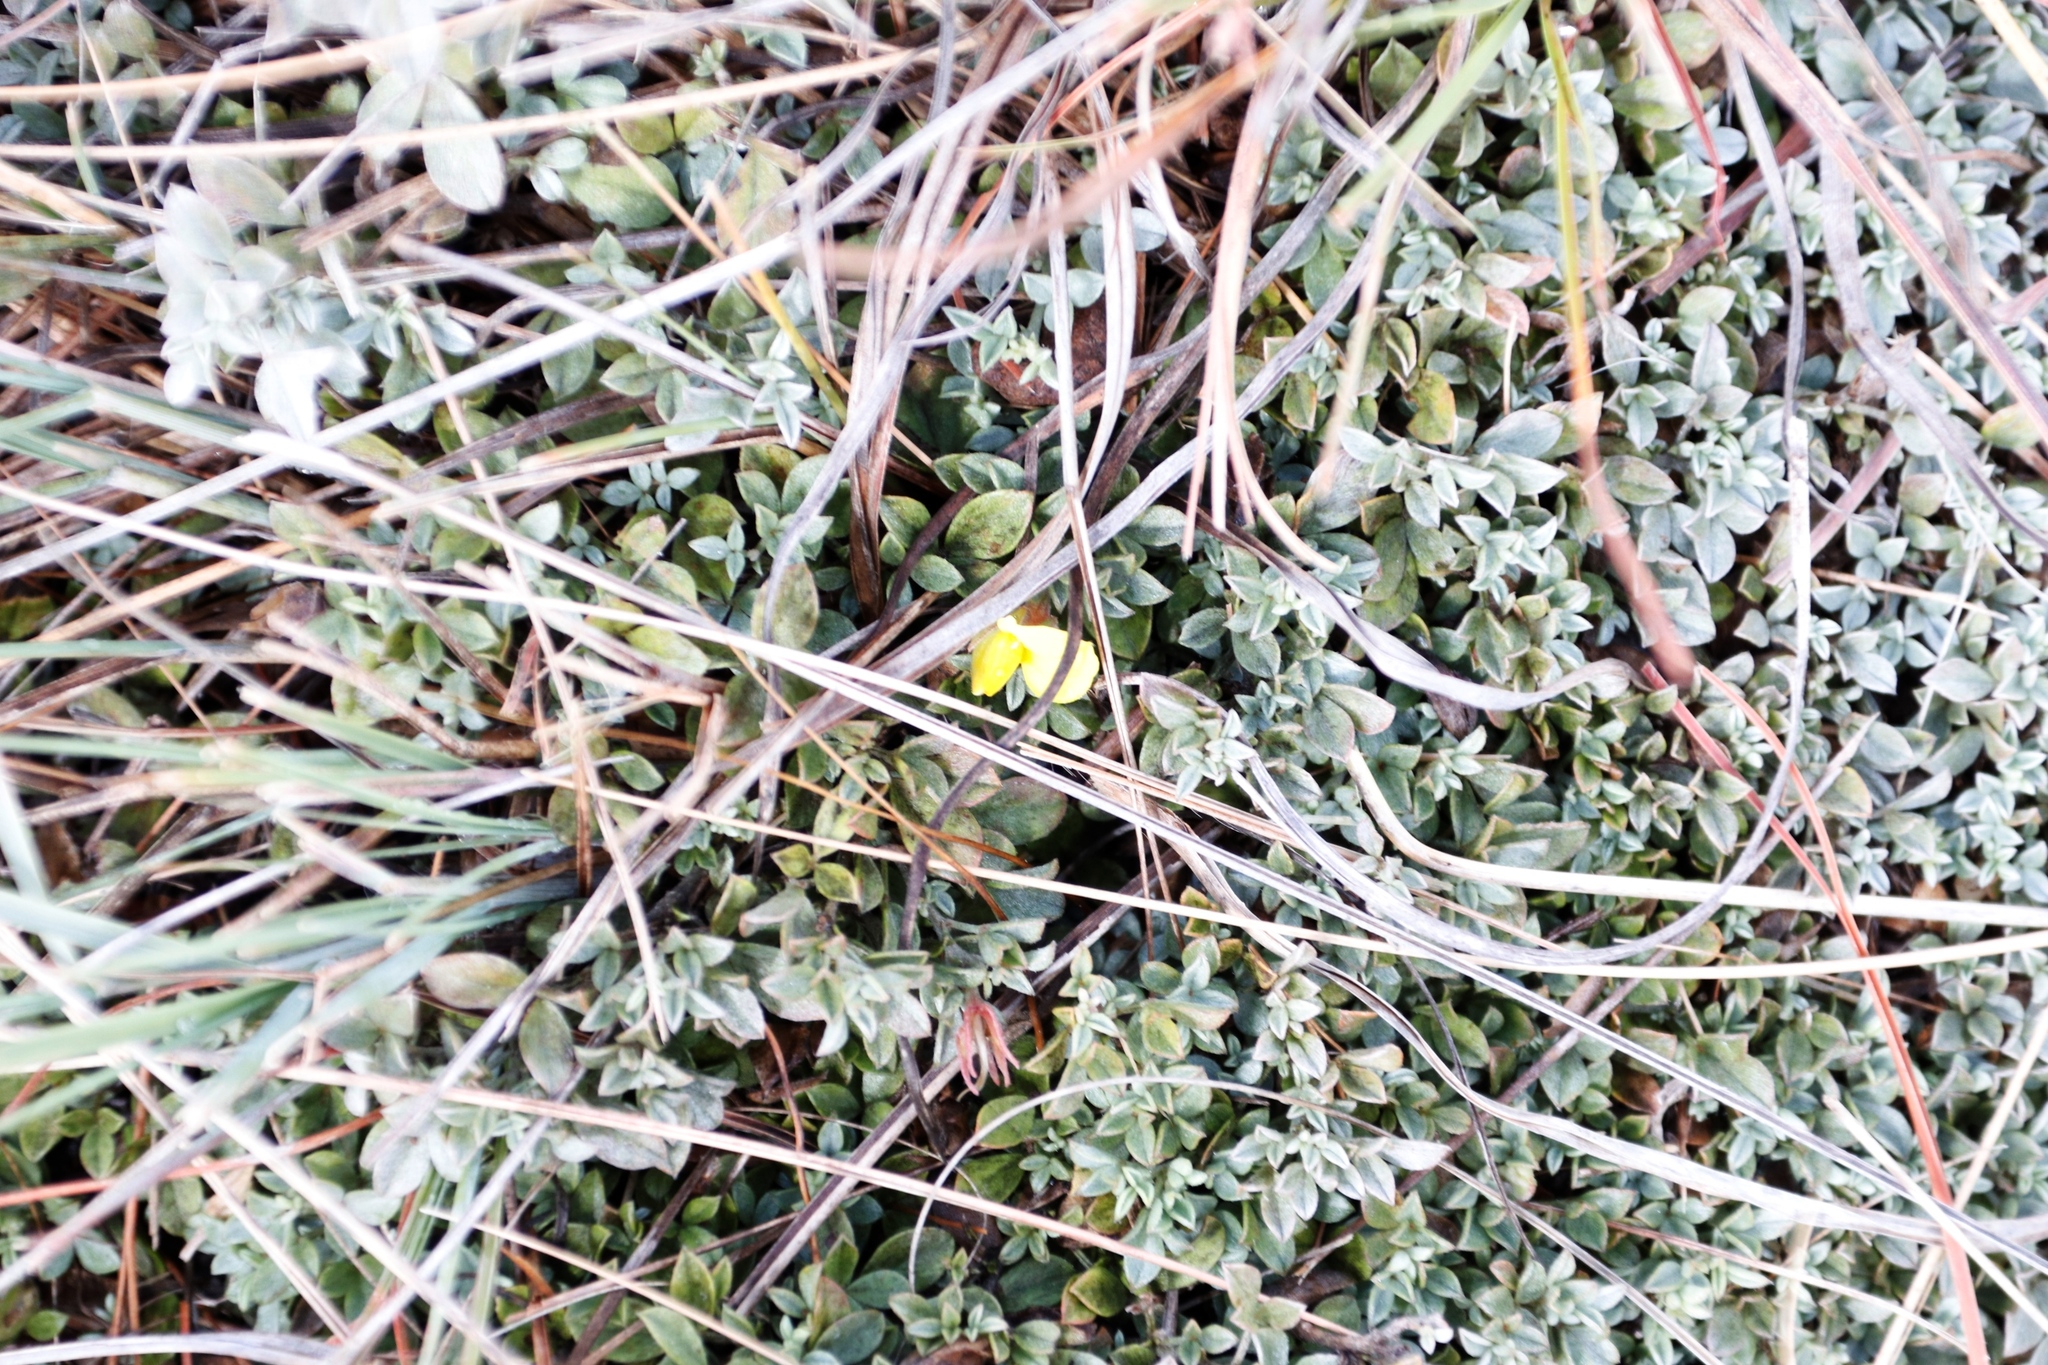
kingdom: Plantae
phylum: Tracheophyta
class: Magnoliopsida
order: Fabales
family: Fabaceae
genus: Lotononis
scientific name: Lotononis laxa
